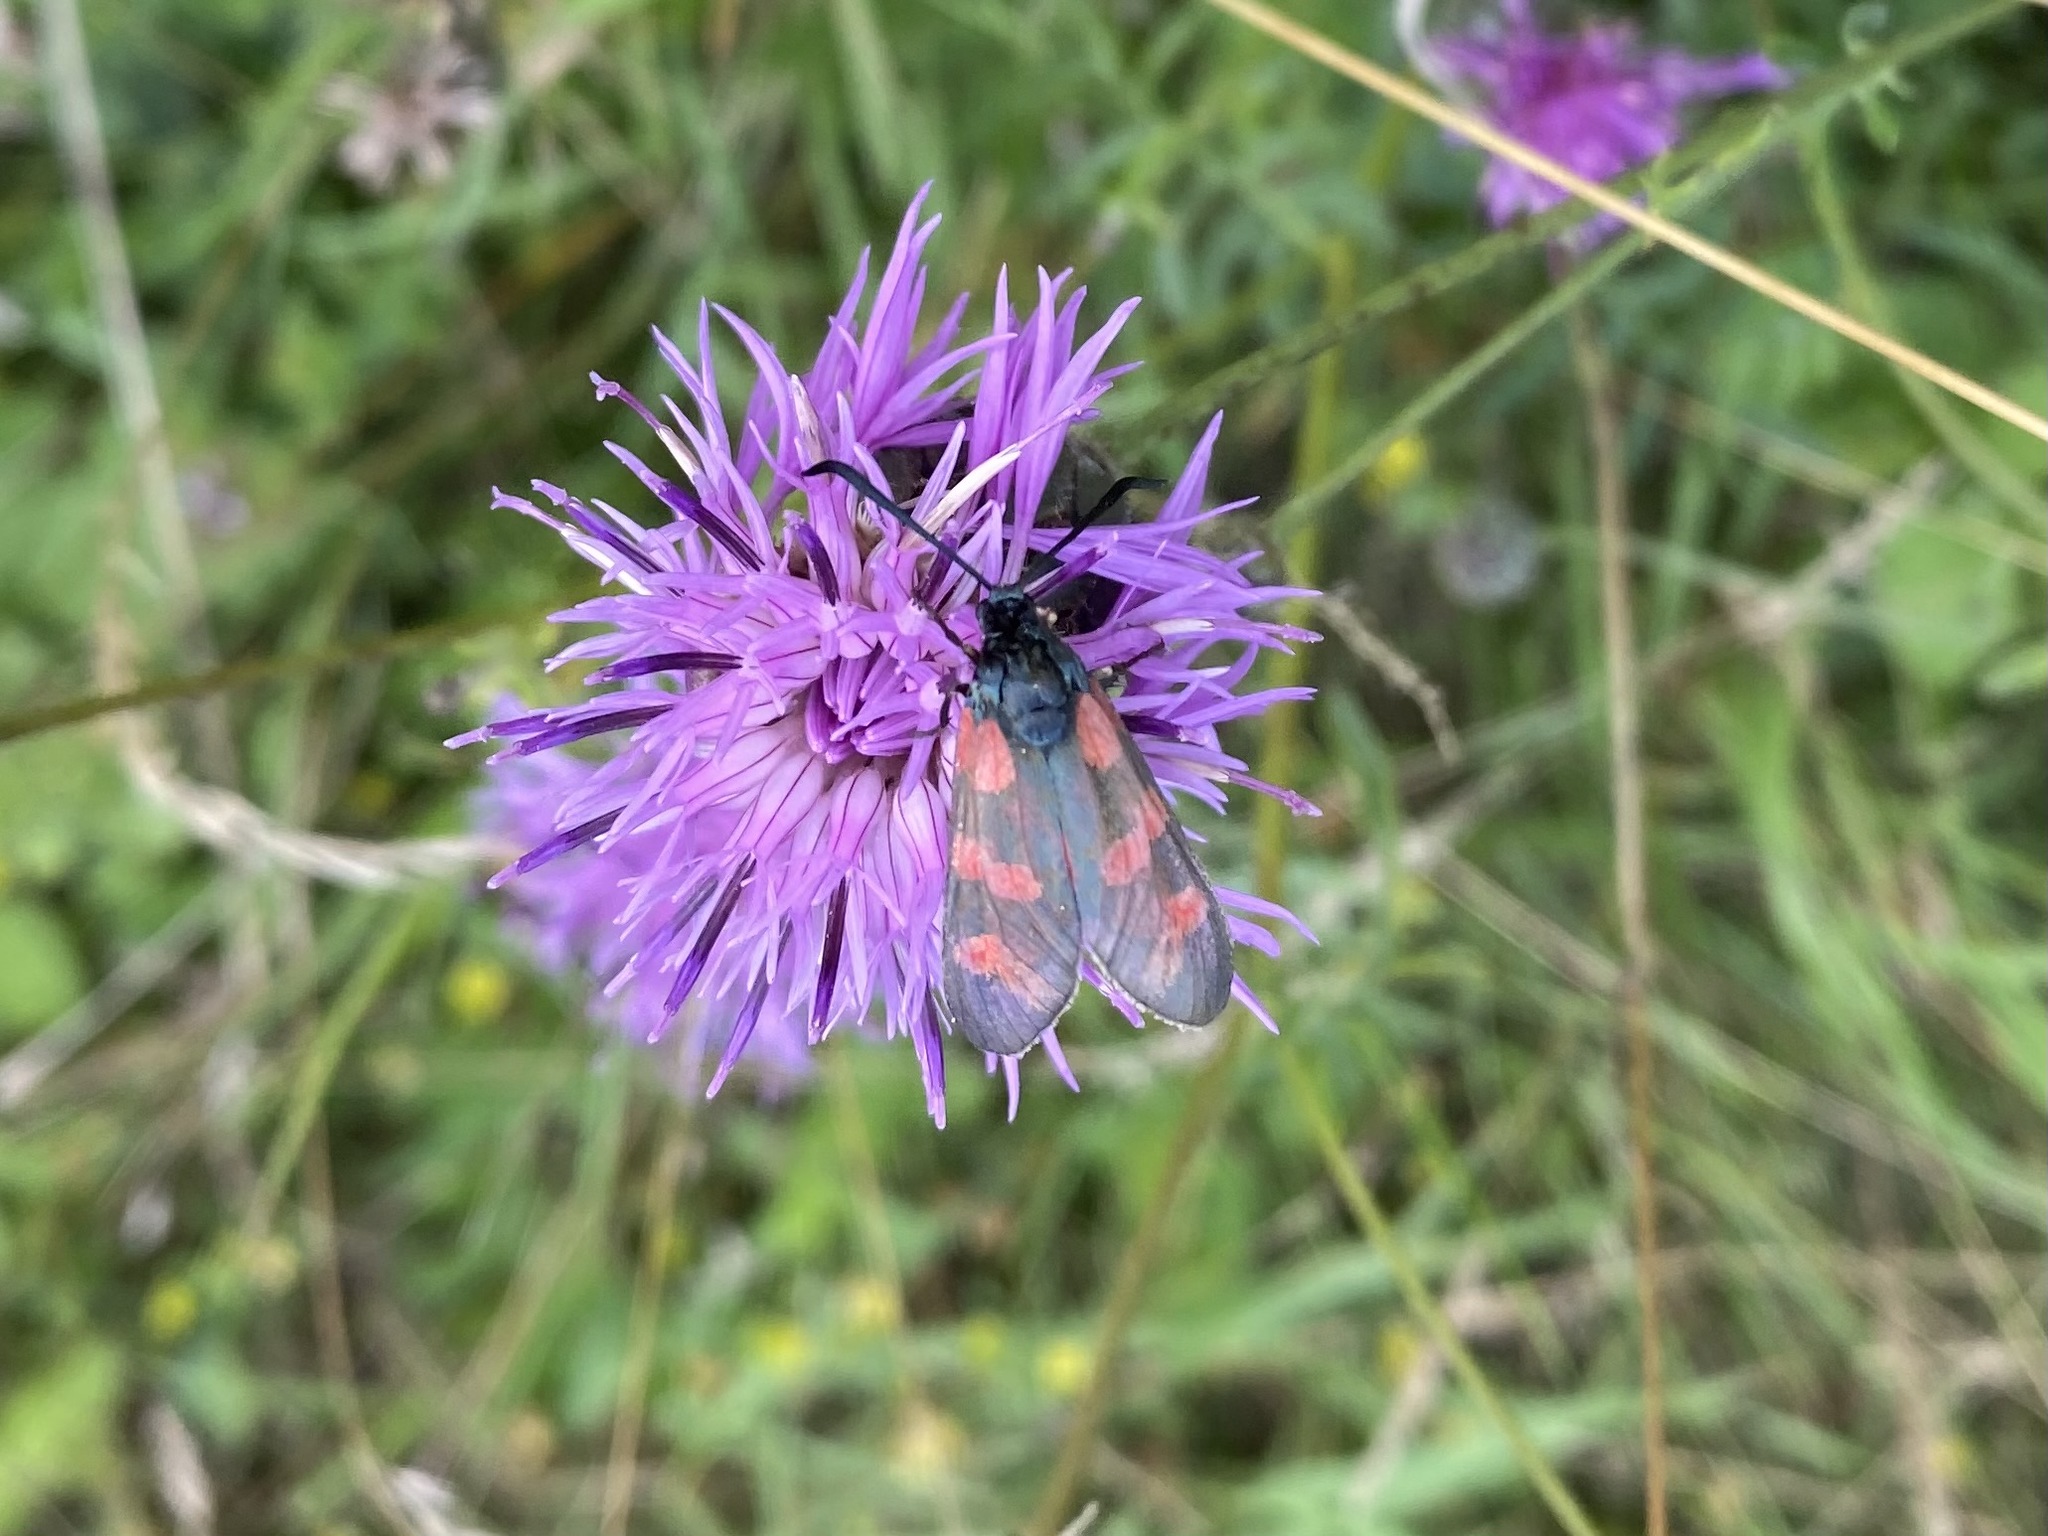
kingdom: Animalia
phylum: Arthropoda
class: Insecta
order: Lepidoptera
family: Zygaenidae
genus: Zygaena
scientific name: Zygaena filipendulae
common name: Six-spot burnet
